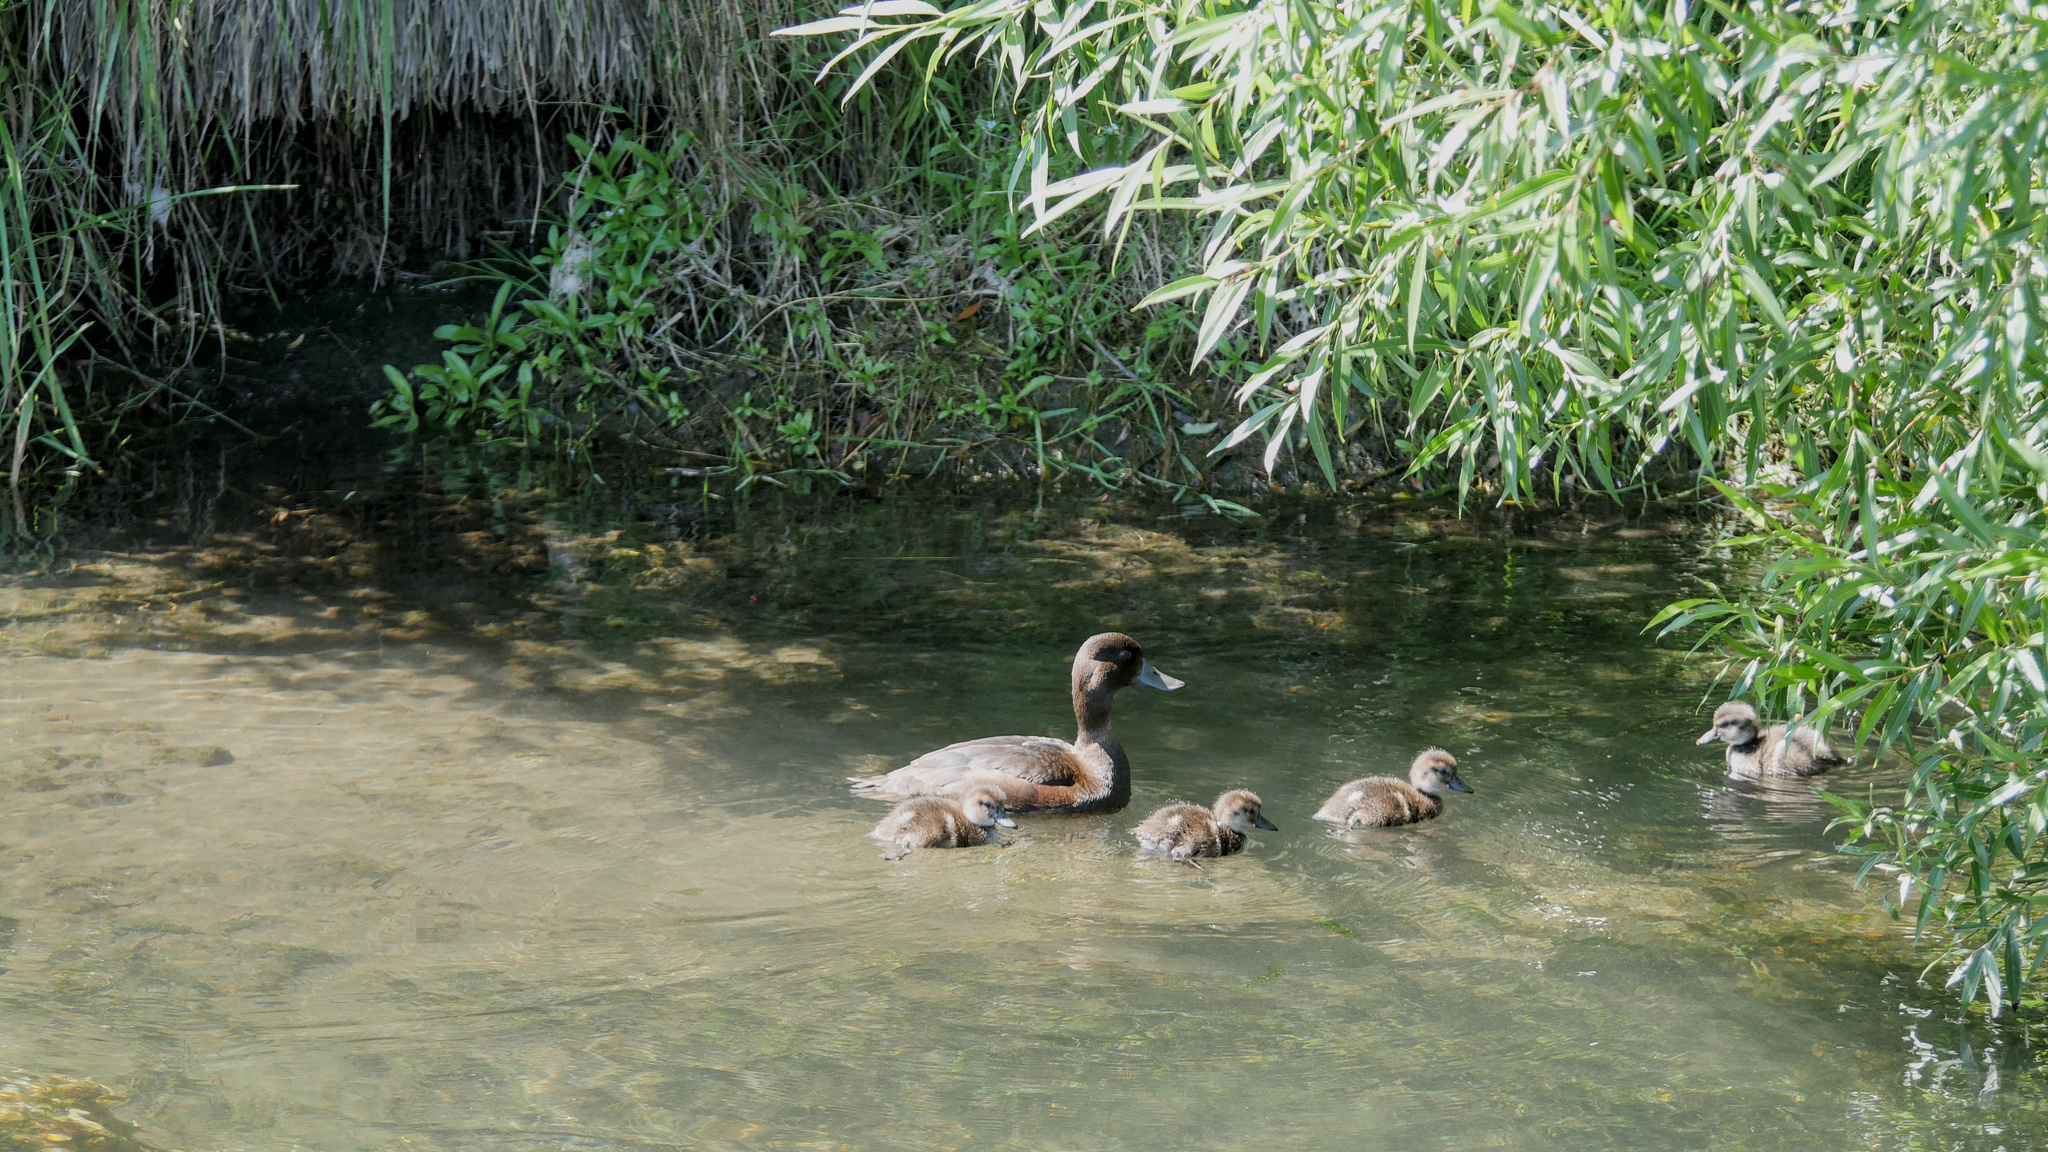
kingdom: Animalia
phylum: Chordata
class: Aves
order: Anseriformes
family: Anatidae
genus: Aythya
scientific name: Aythya novaeseelandiae
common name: New zealand scaup
